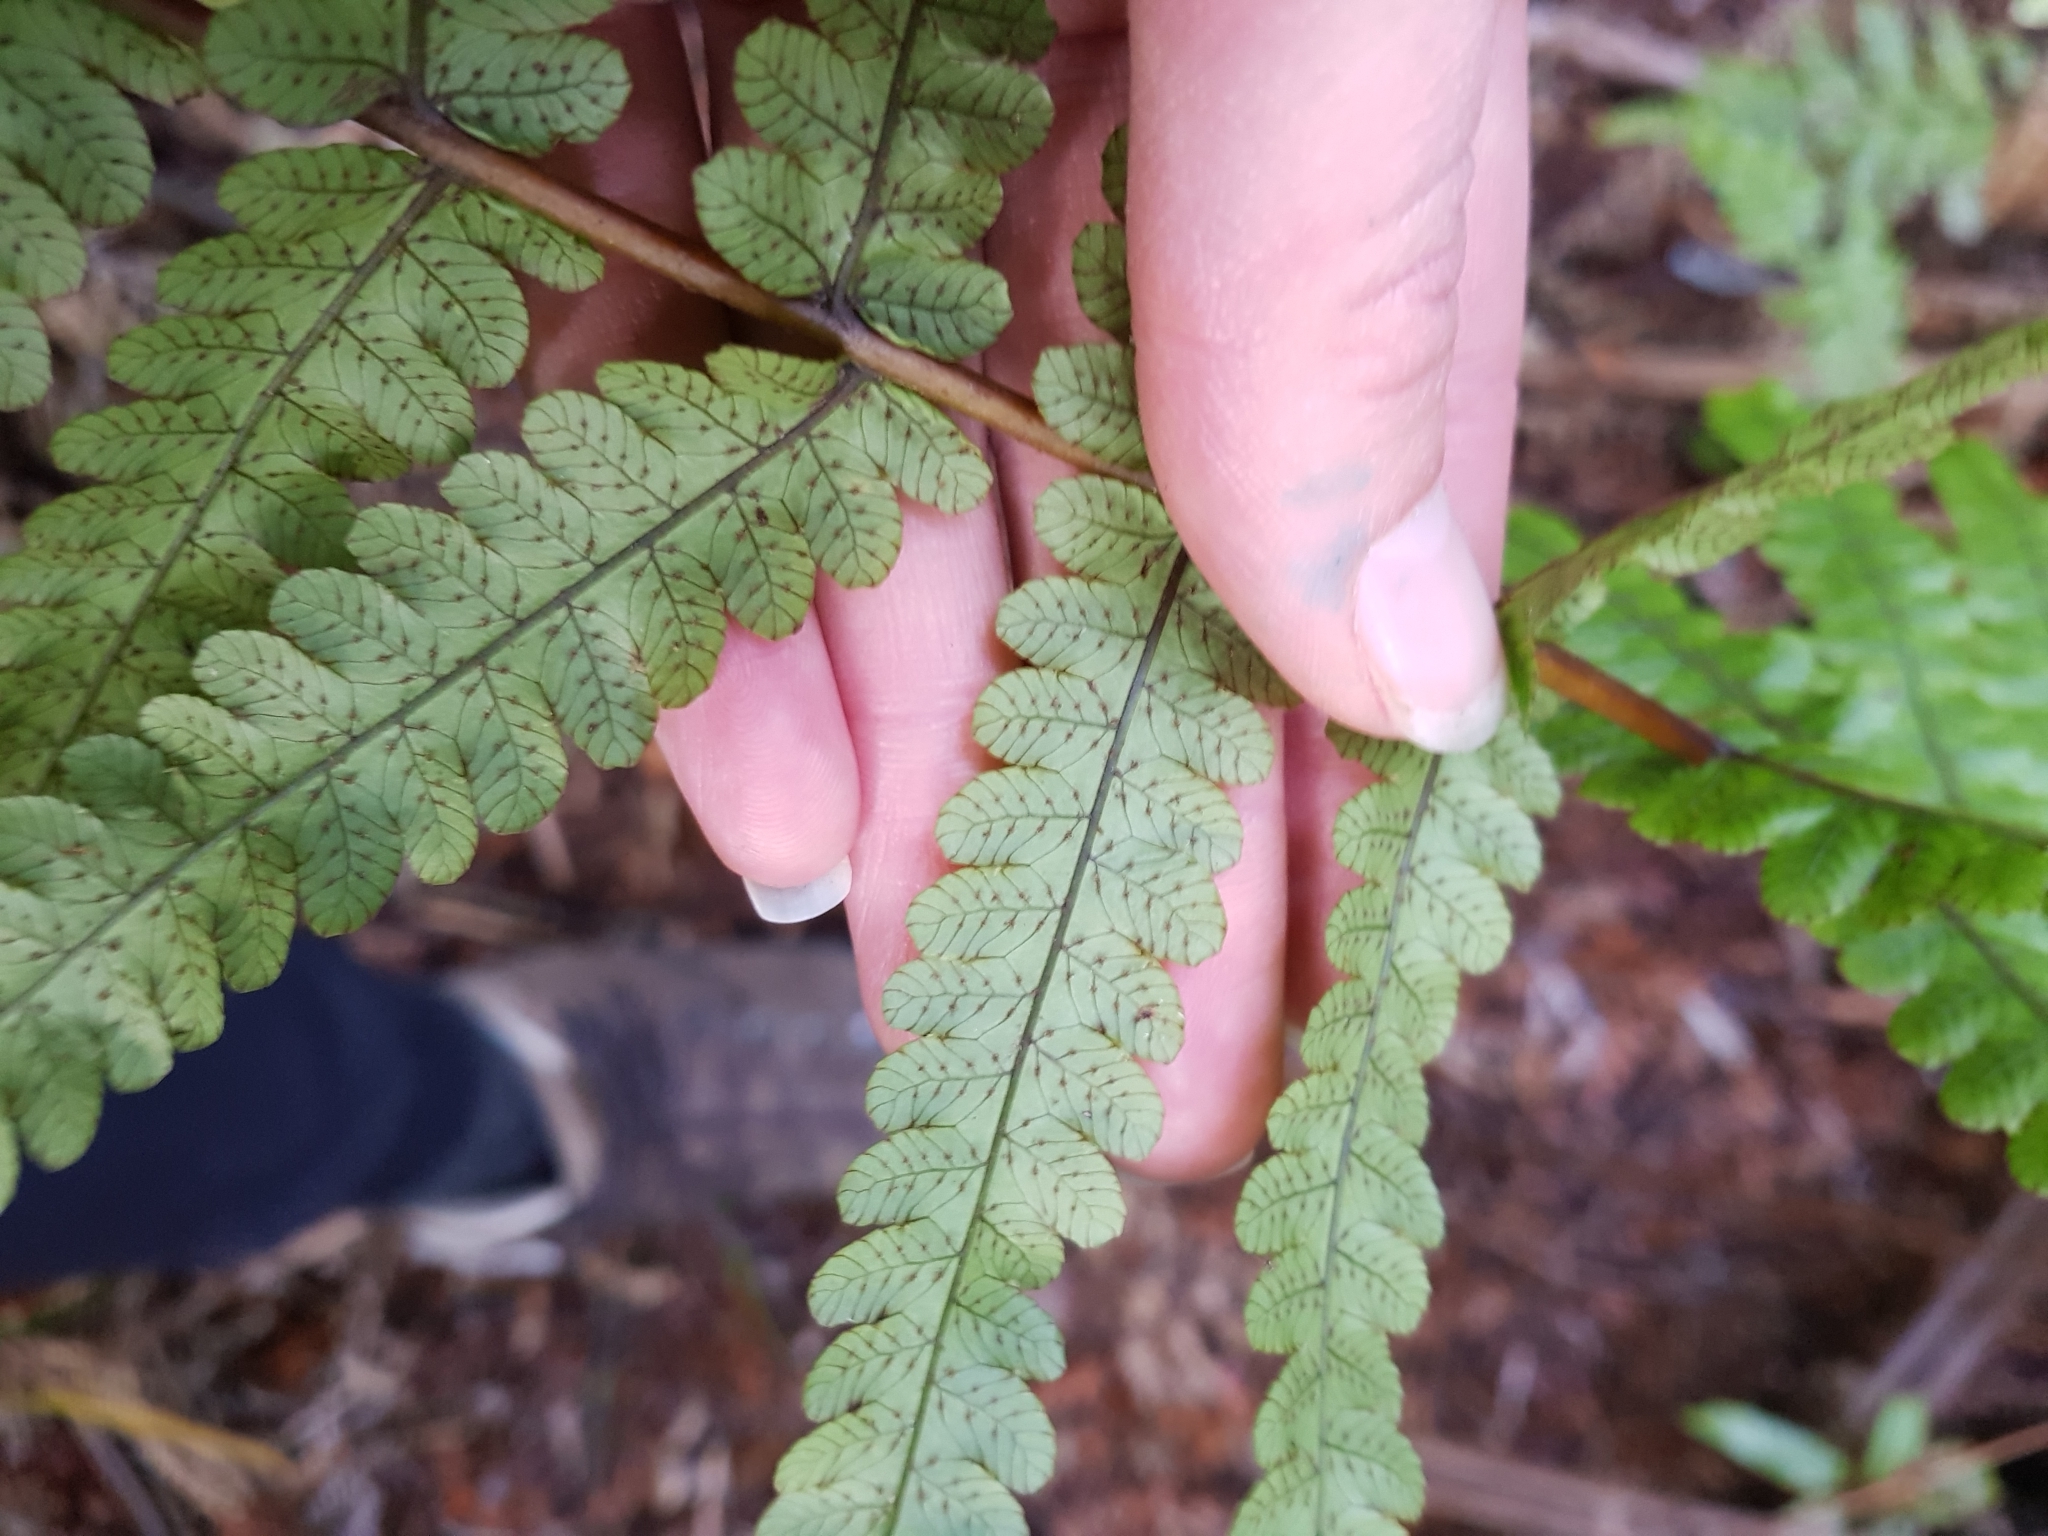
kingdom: Plantae
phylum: Tracheophyta
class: Polypodiopsida
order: Polypodiales
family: Thelypteridaceae
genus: Pakau
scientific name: Pakau pennigera
